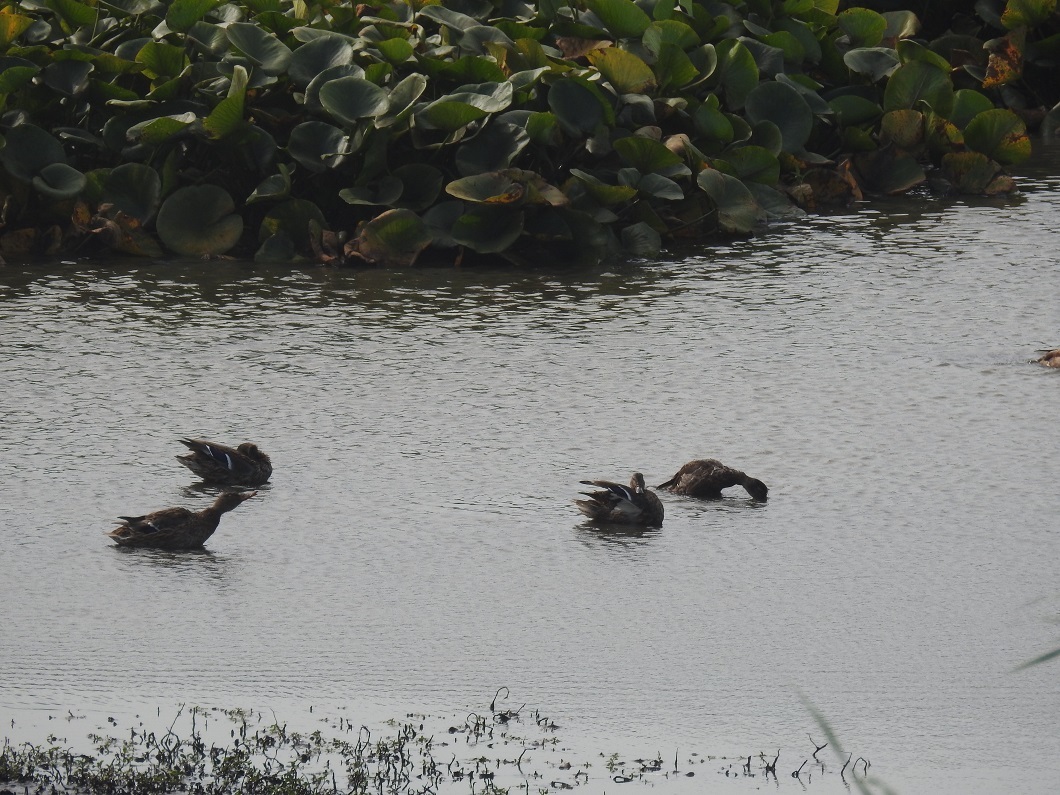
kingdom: Animalia
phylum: Chordata
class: Aves
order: Anseriformes
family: Anatidae
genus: Anas
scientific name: Anas platyrhynchos
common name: Mallard
